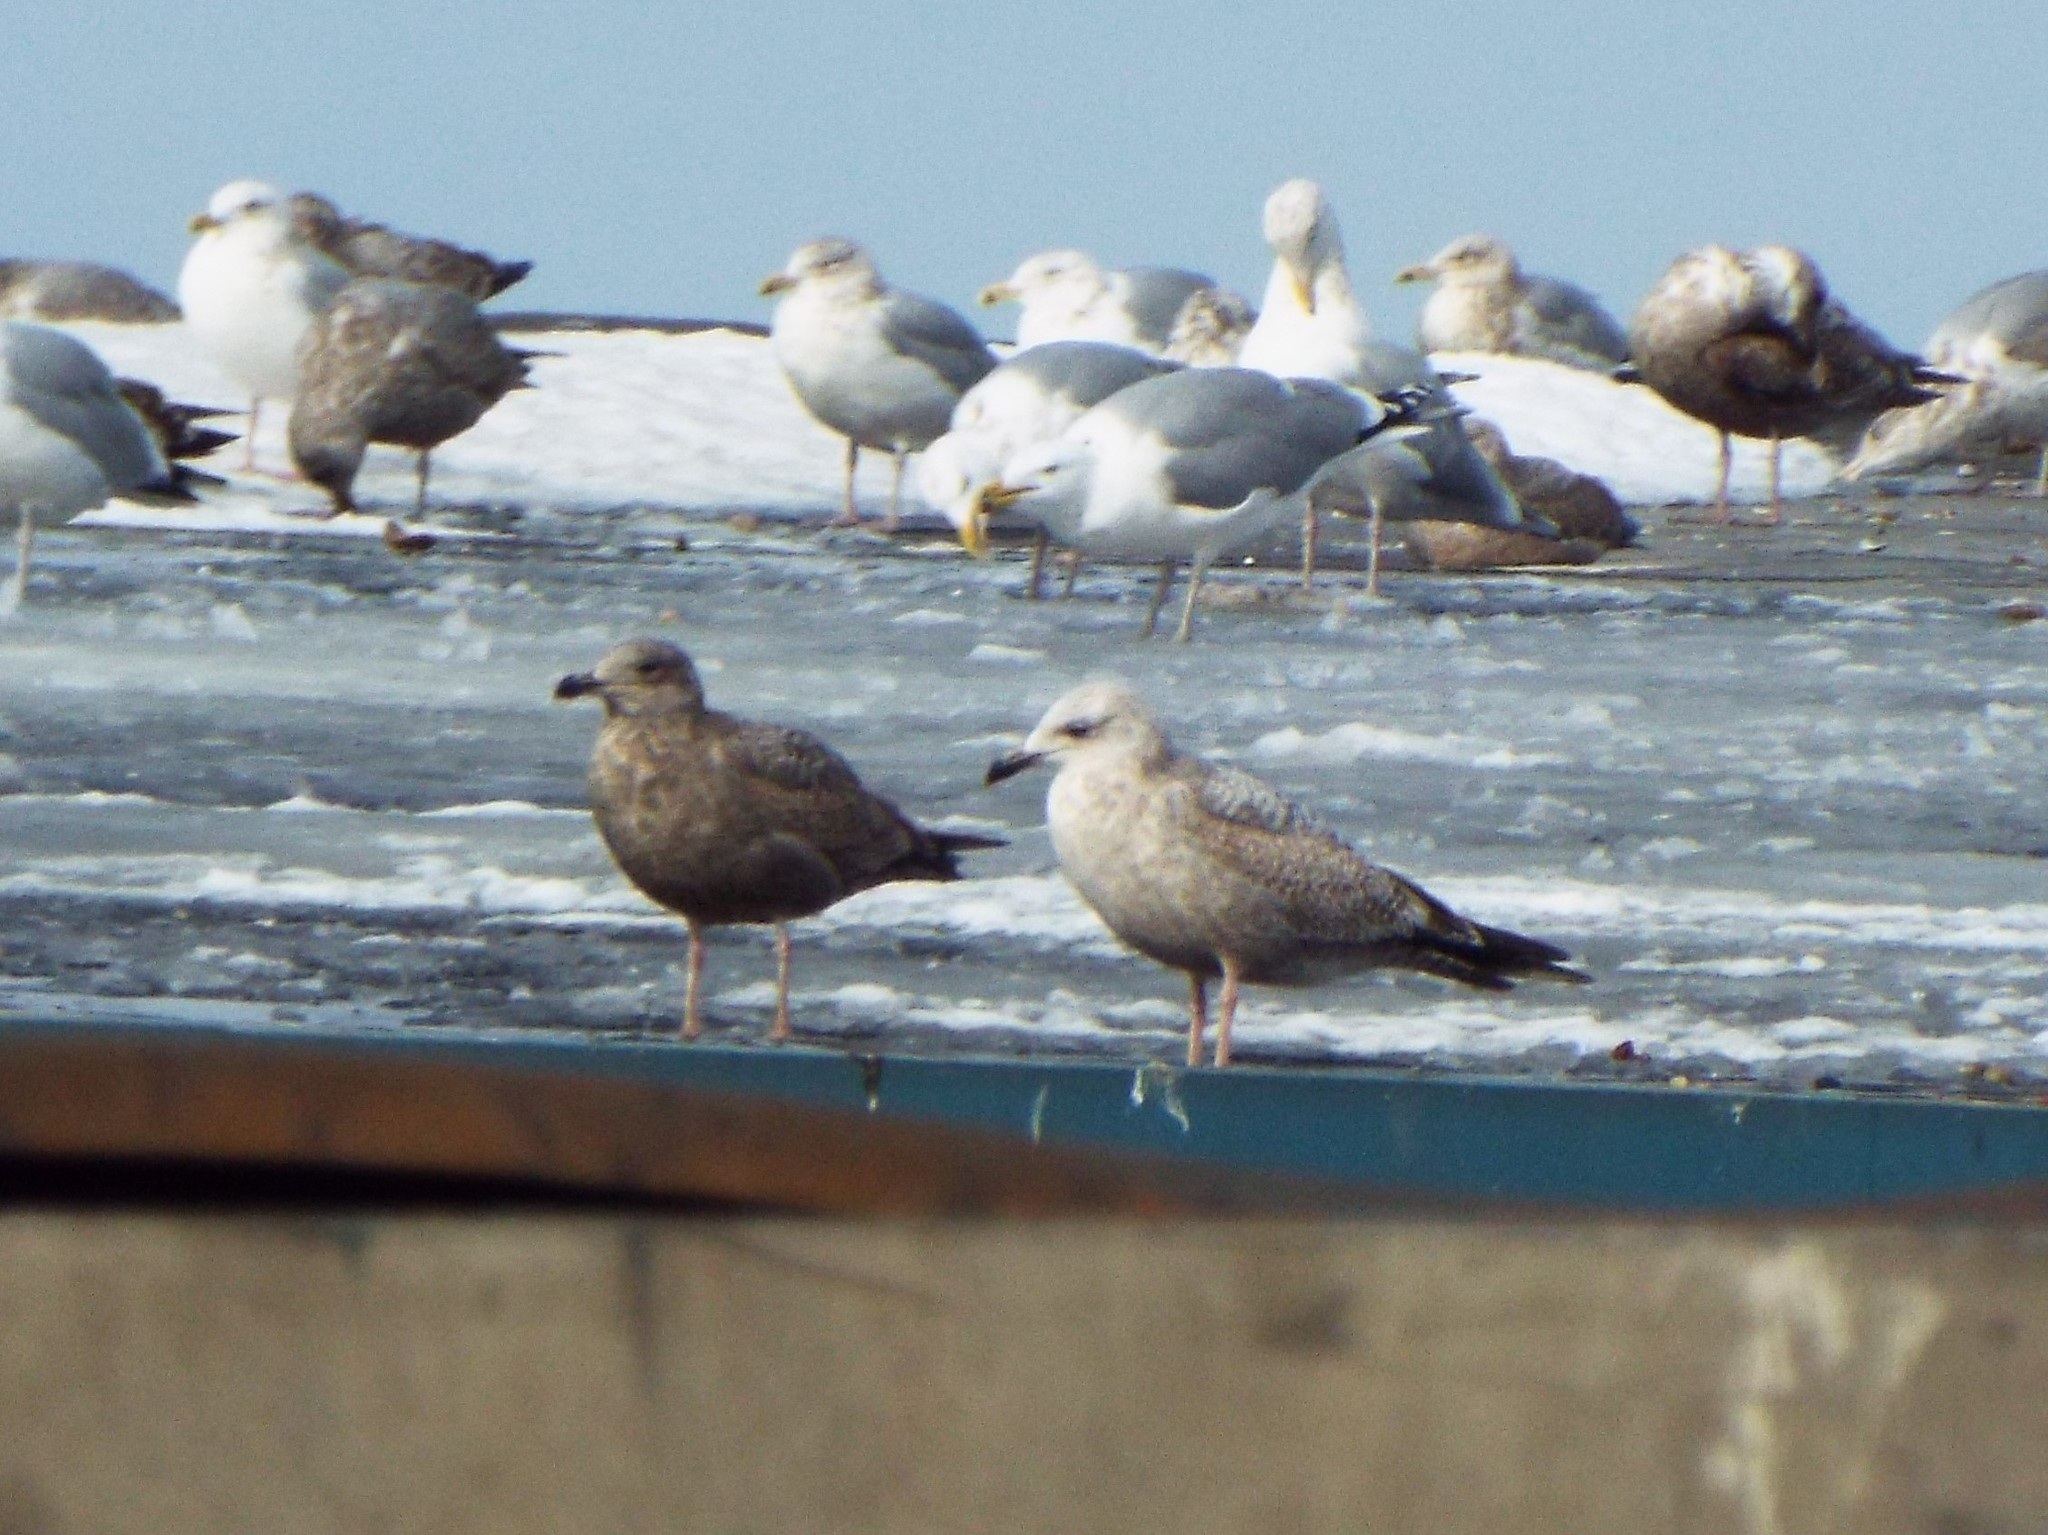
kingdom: Animalia
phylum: Chordata
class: Aves
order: Charadriiformes
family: Laridae
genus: Larus
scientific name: Larus argentatus
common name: Herring gull
